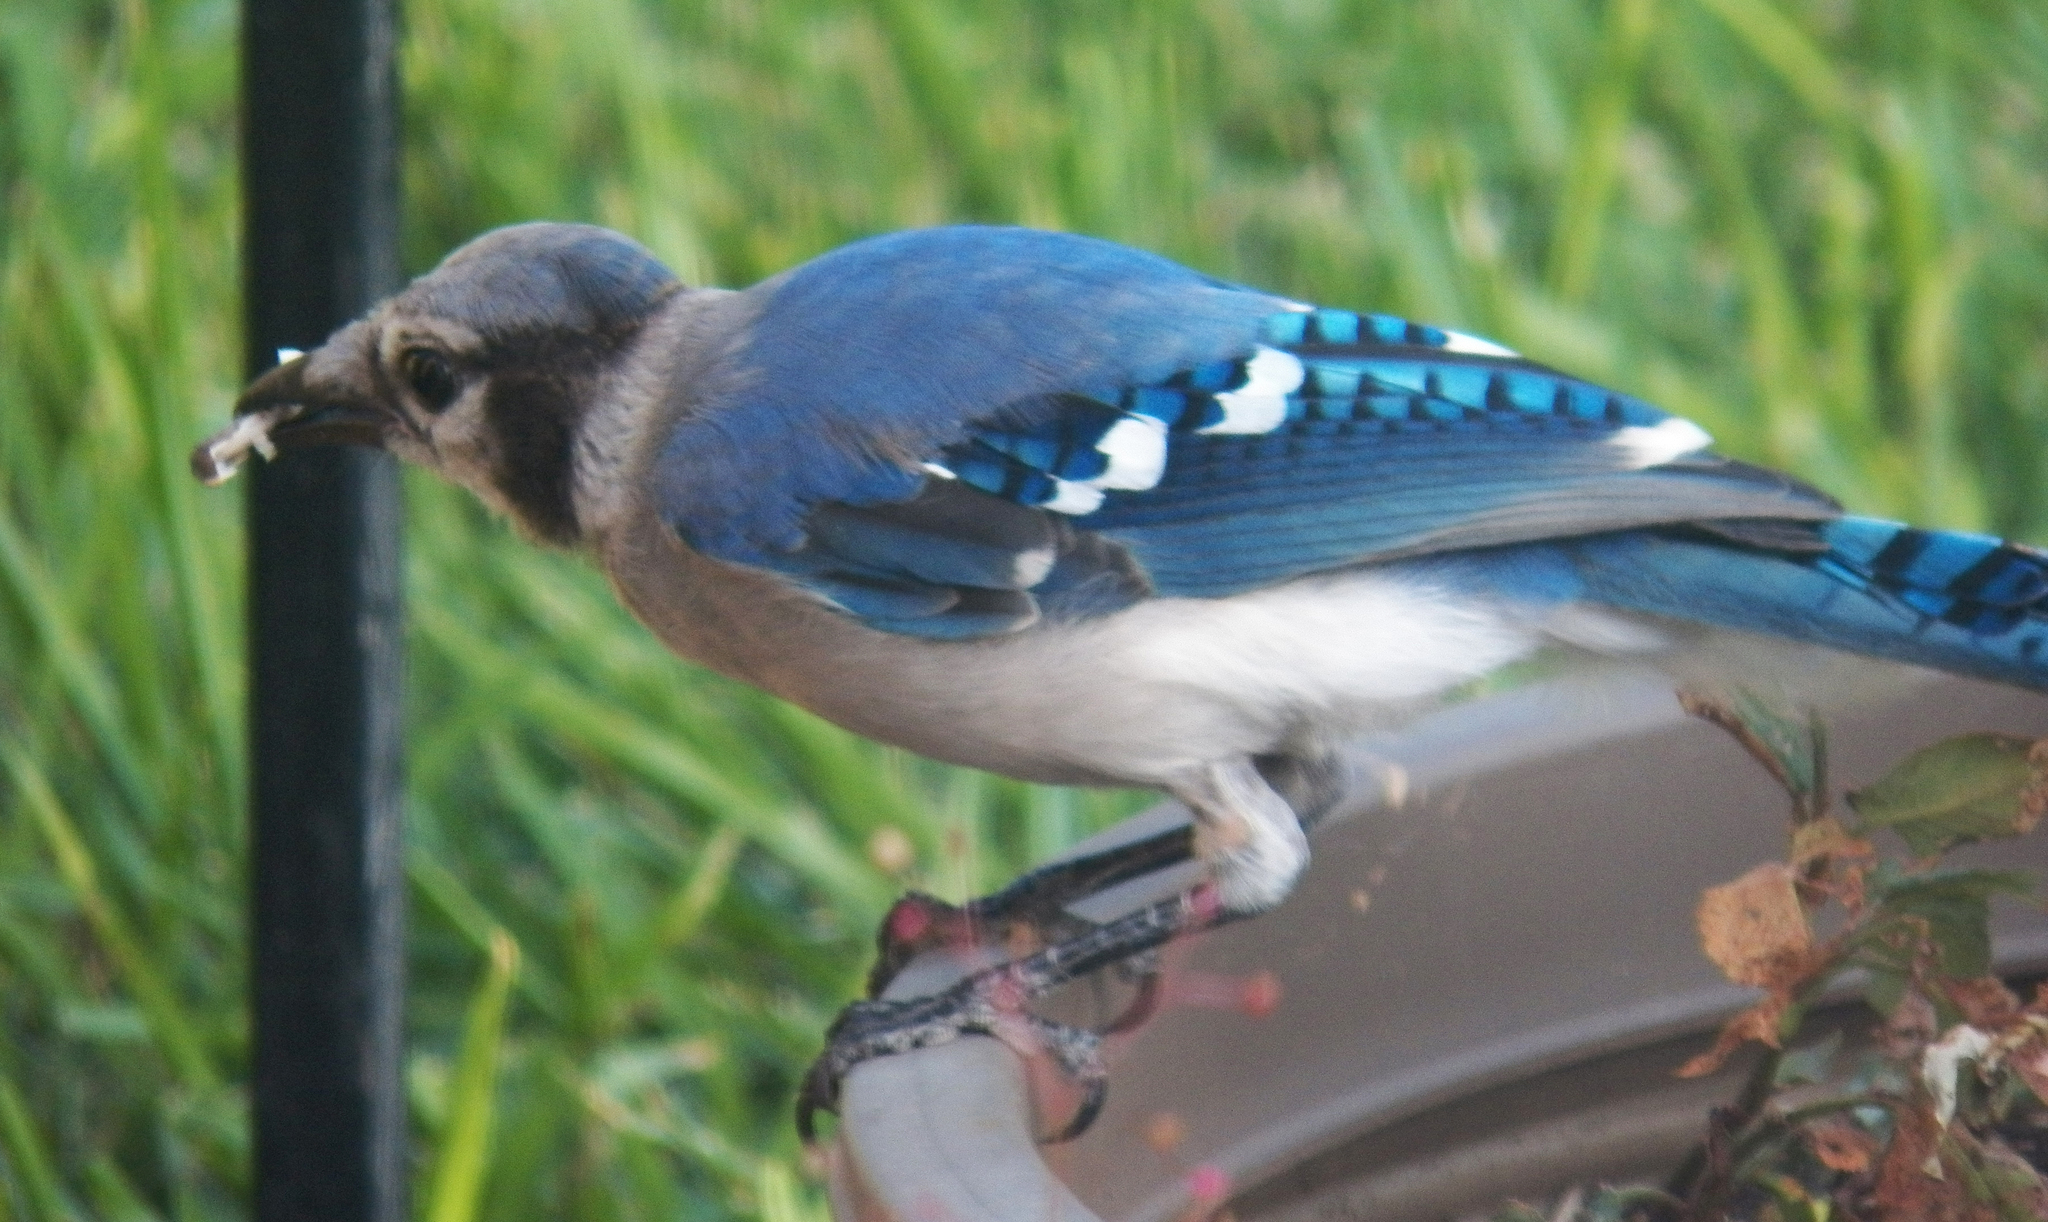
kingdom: Animalia
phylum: Chordata
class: Aves
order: Passeriformes
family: Corvidae
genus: Cyanocitta
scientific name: Cyanocitta cristata
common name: Blue jay
